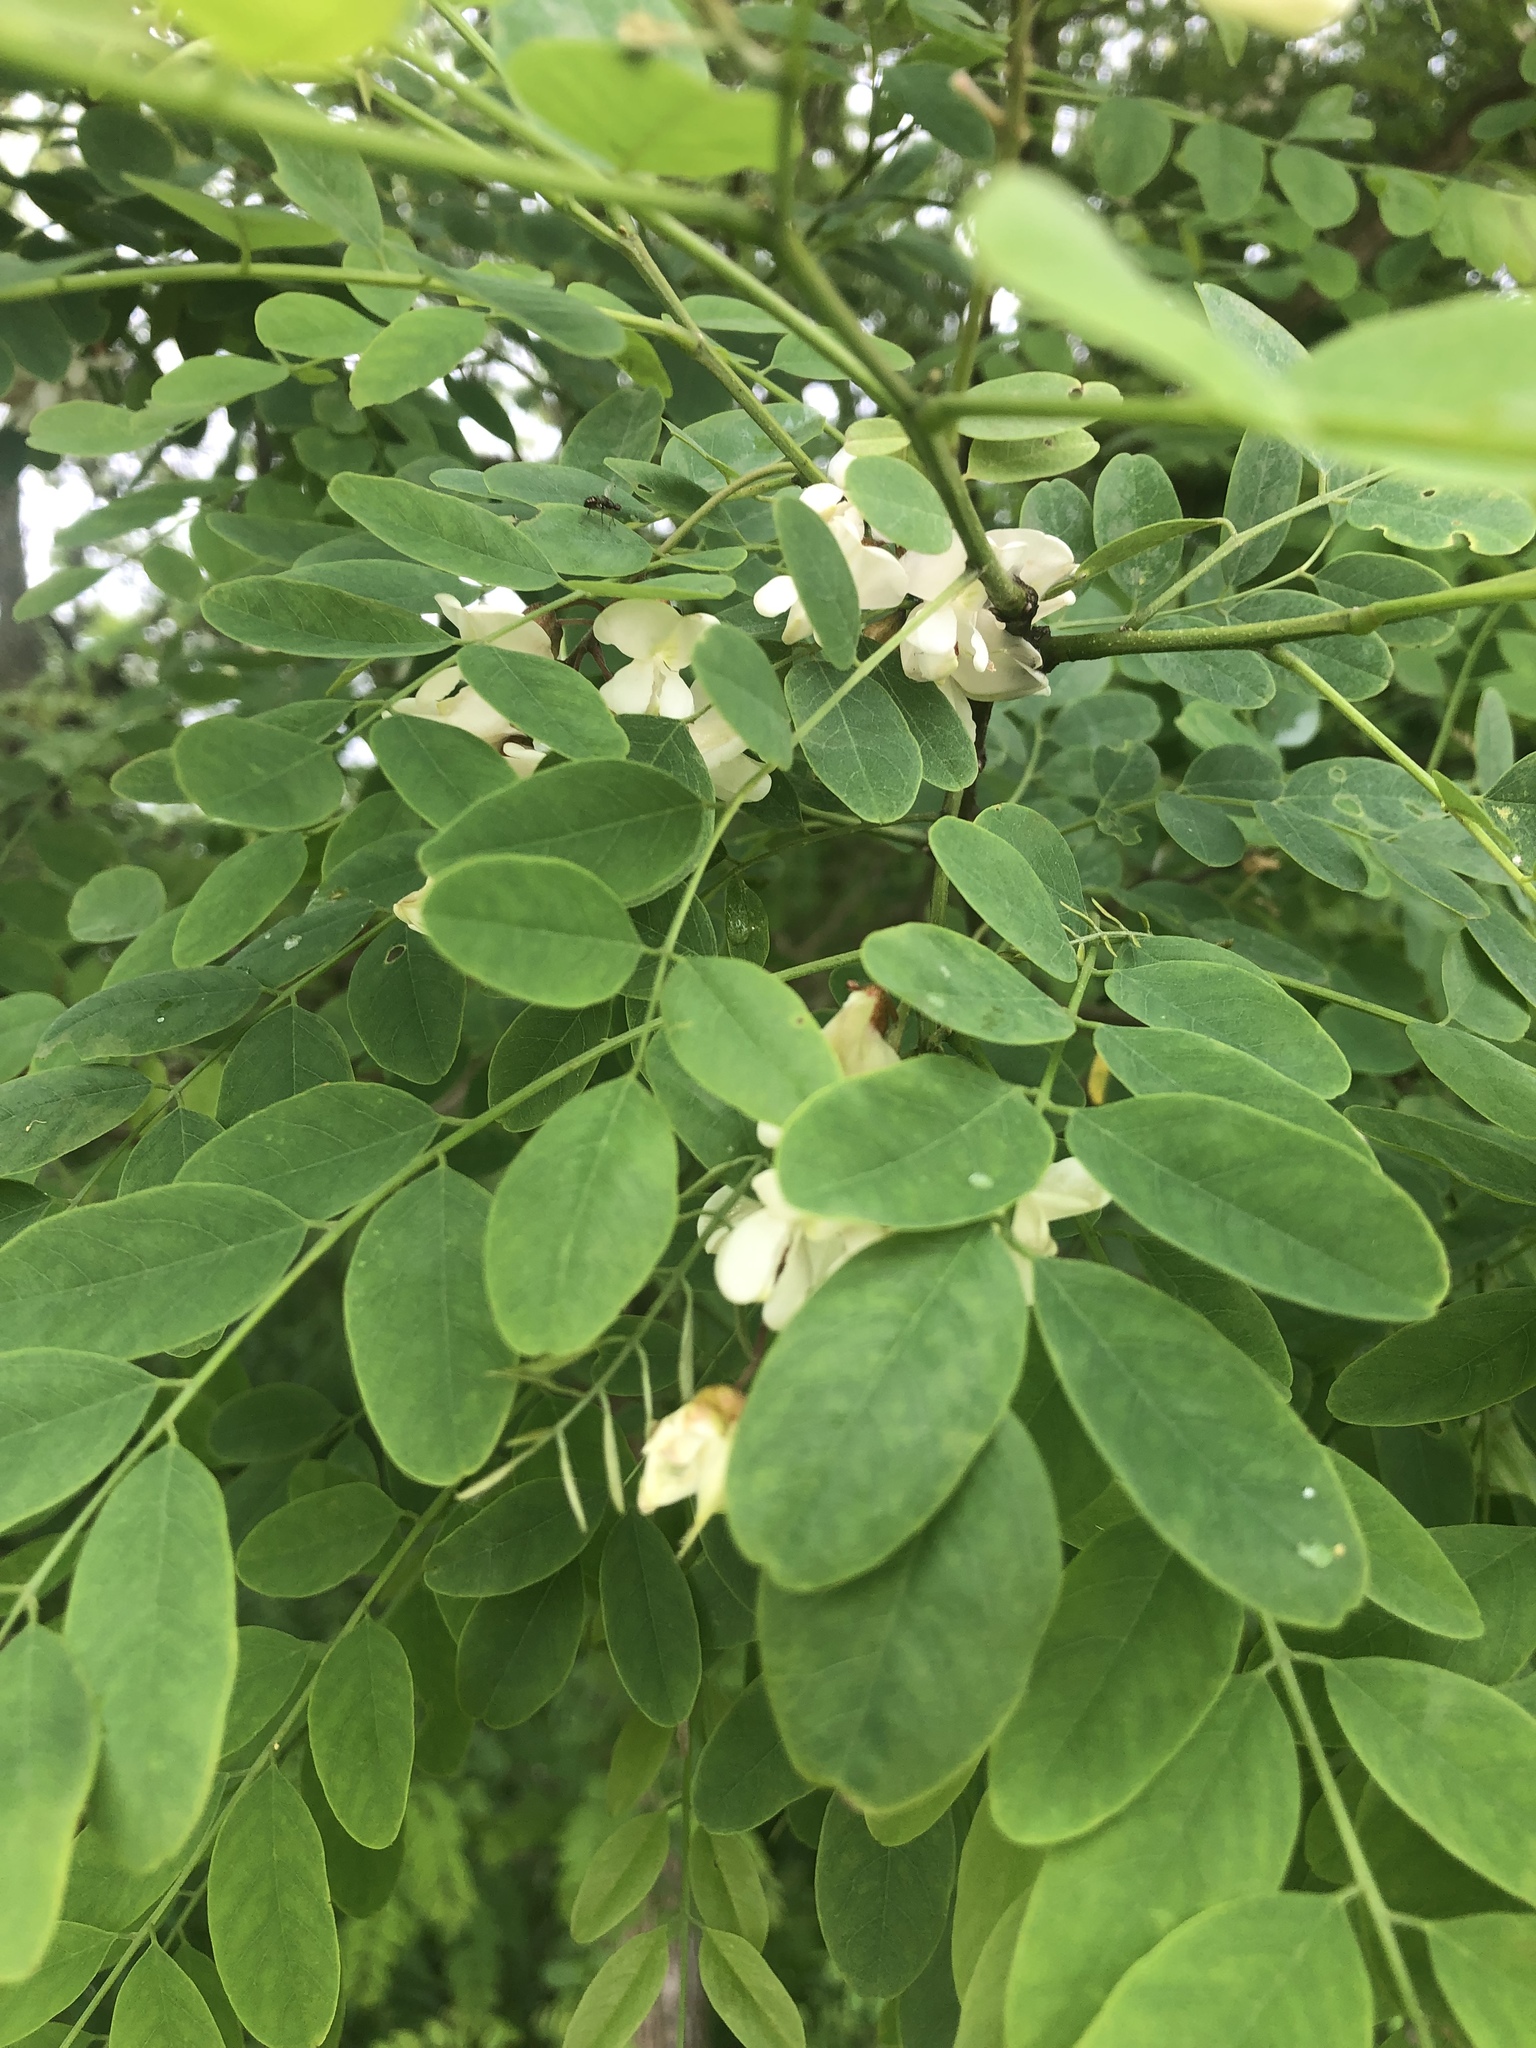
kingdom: Plantae
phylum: Tracheophyta
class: Magnoliopsida
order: Fabales
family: Fabaceae
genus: Robinia
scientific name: Robinia pseudoacacia
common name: Black locust
